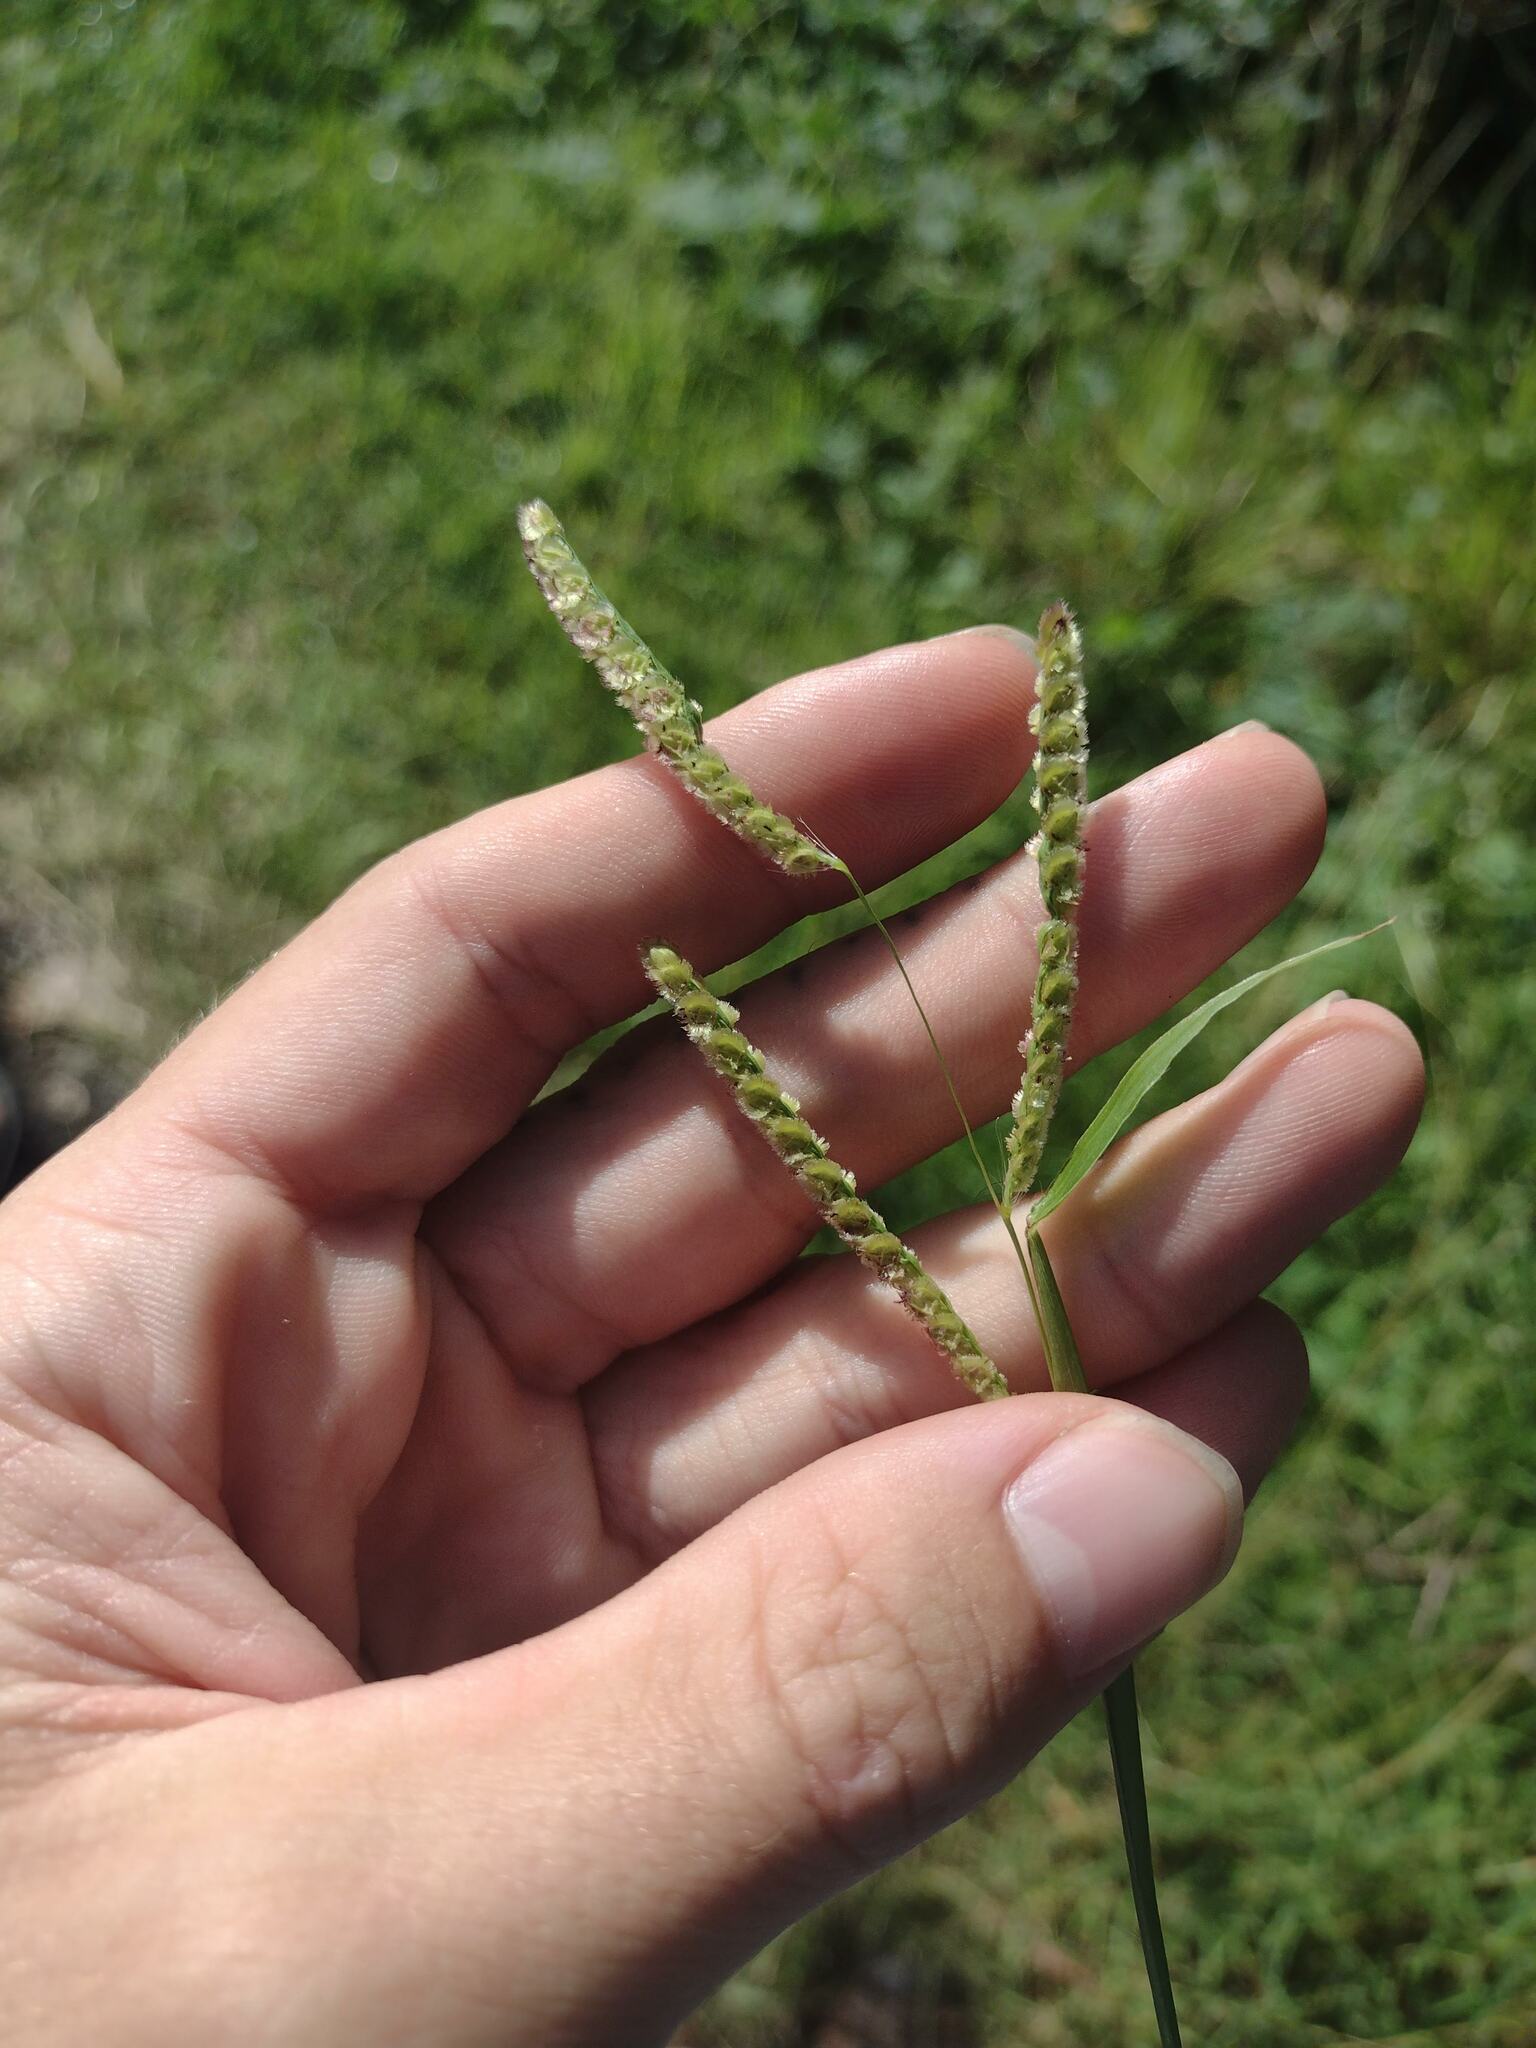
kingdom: Plantae
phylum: Tracheophyta
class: Liliopsida
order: Poales
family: Poaceae
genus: Paspalum
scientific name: Paspalum fimbriatum
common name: Panama crowngrass
